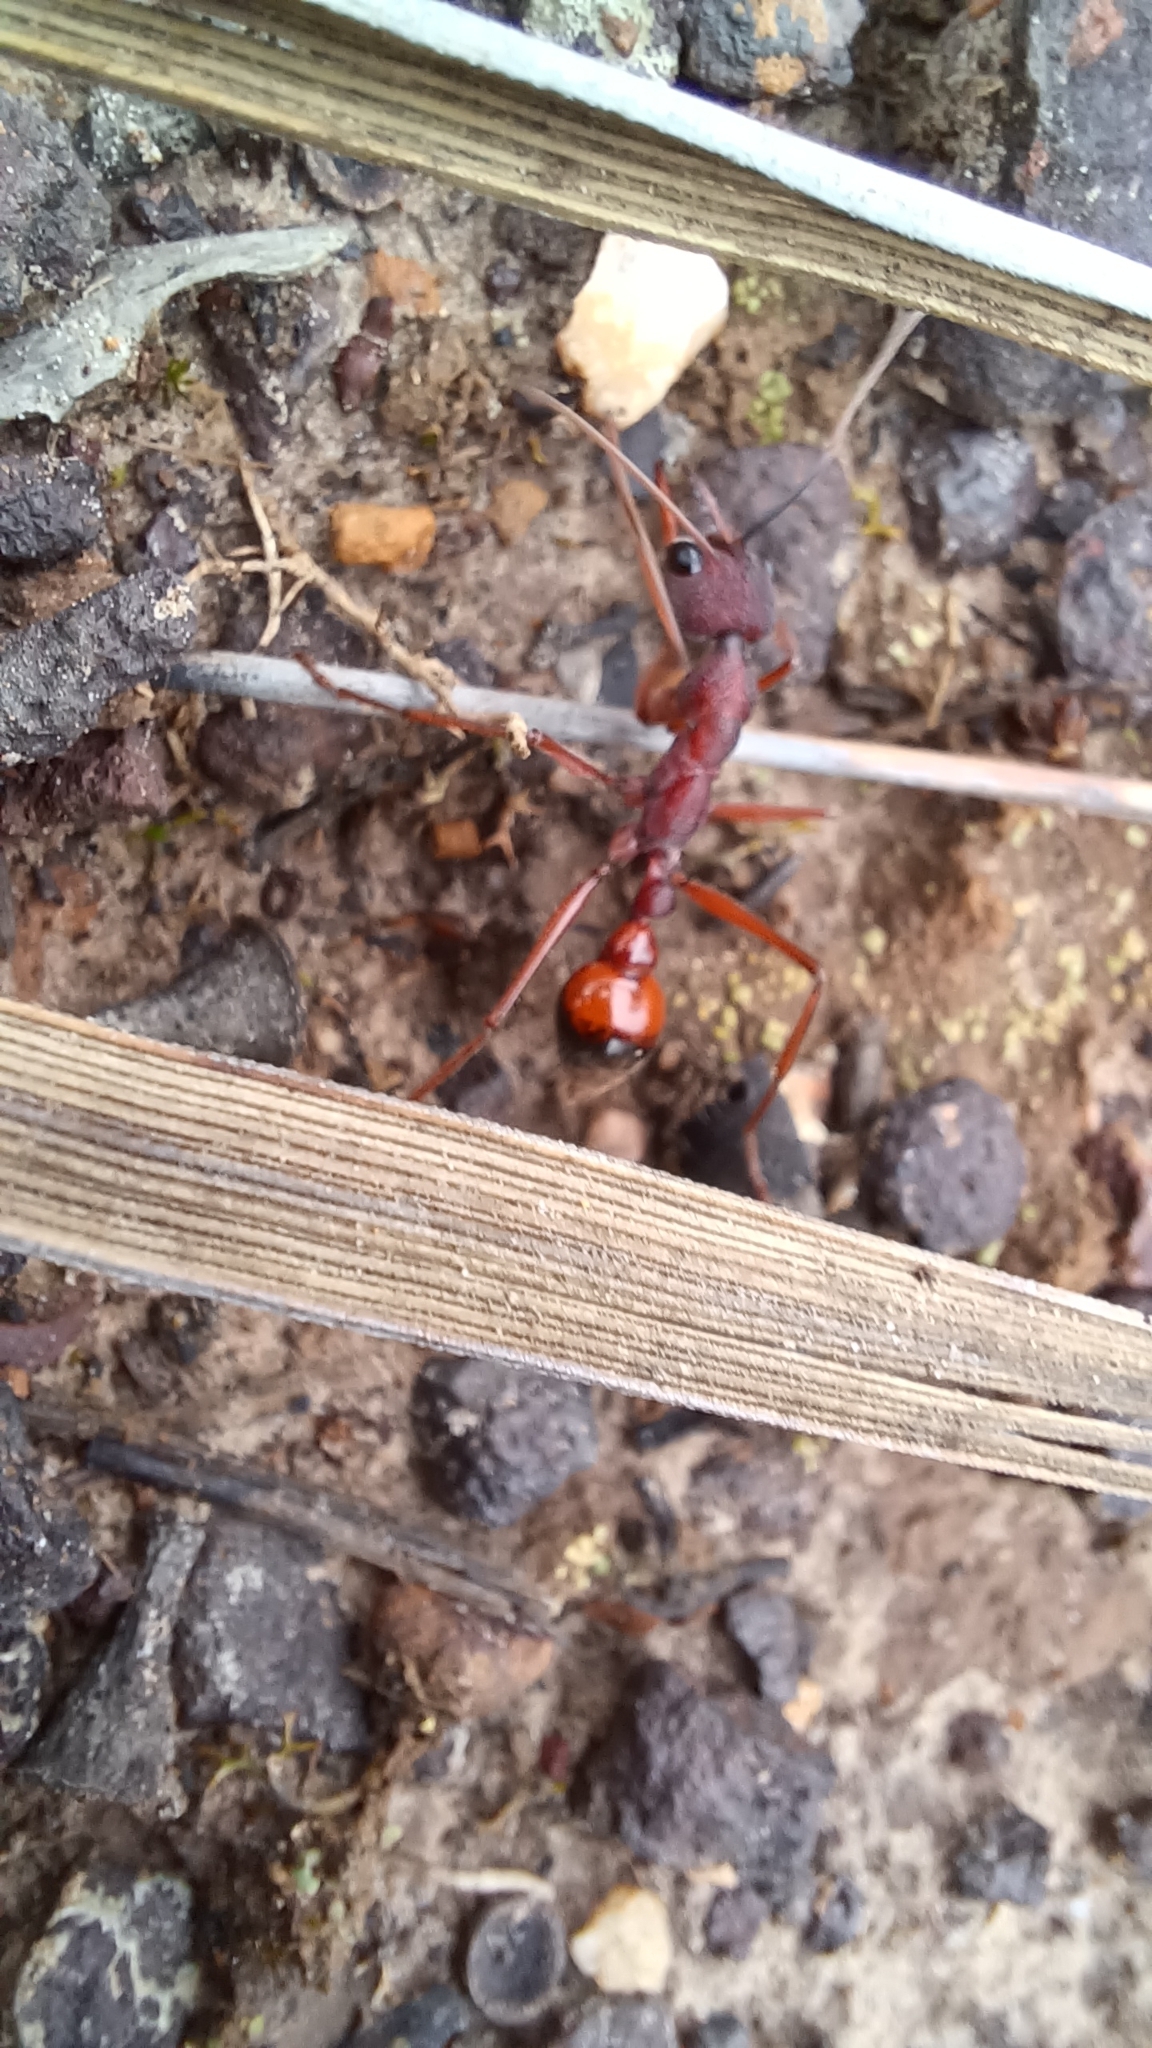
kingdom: Animalia
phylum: Arthropoda
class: Insecta
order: Hymenoptera
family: Formicidae
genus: Myrmecia
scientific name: Myrmecia nigriscapa
